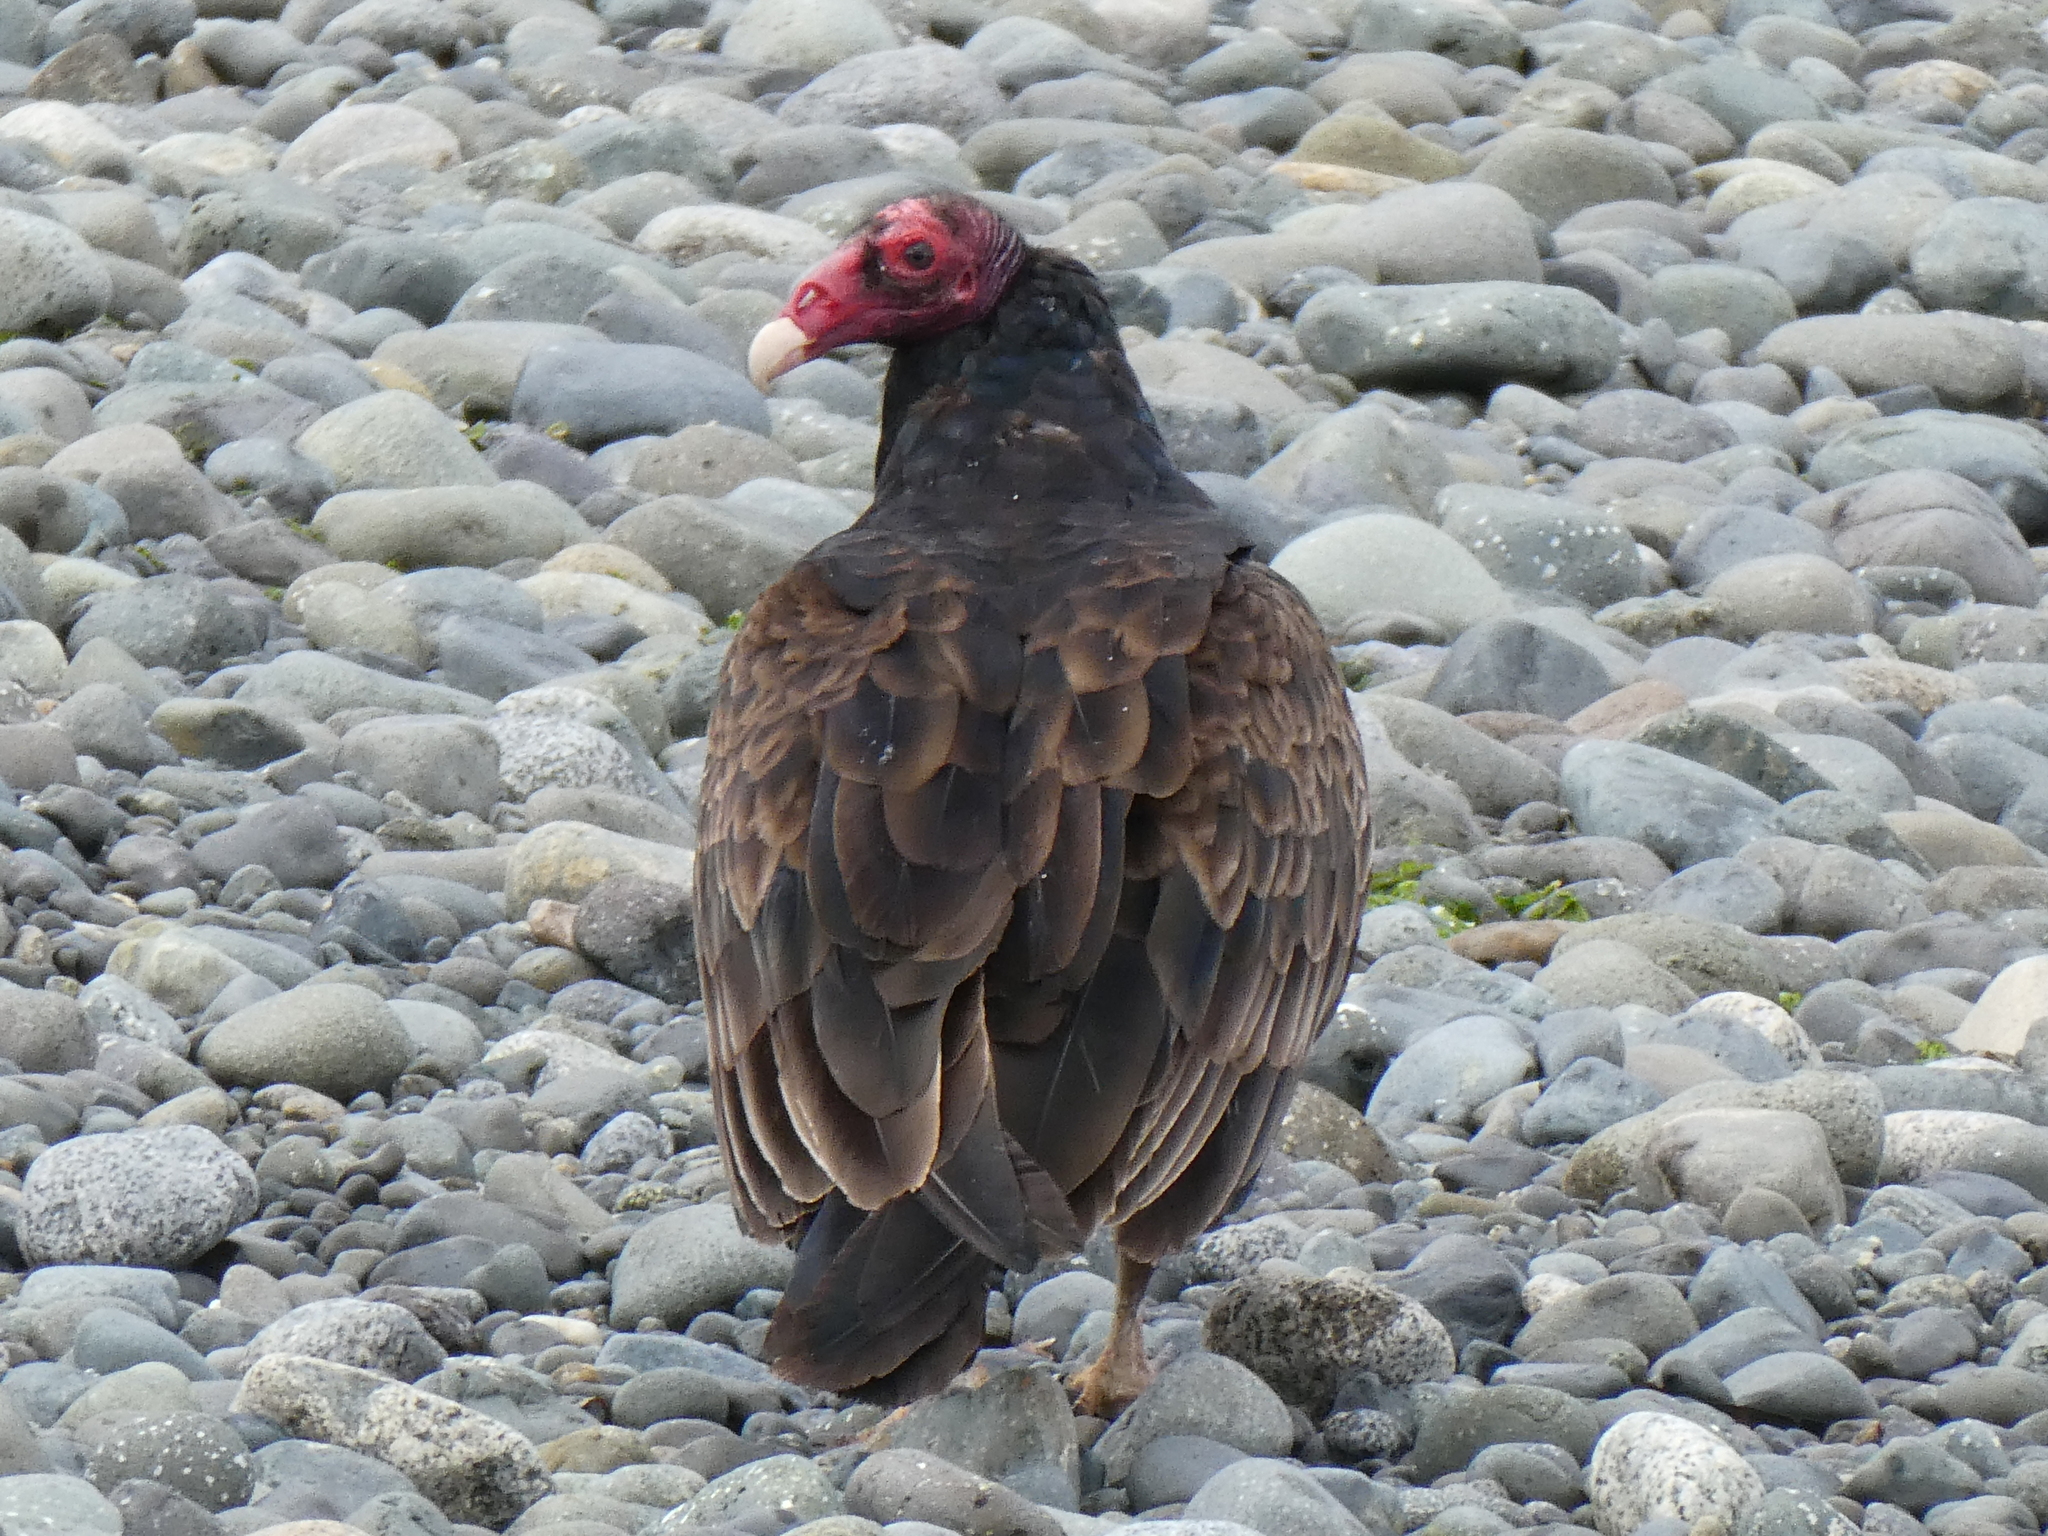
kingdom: Animalia
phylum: Chordata
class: Aves
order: Accipitriformes
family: Cathartidae
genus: Cathartes
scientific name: Cathartes aura
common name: Turkey vulture
